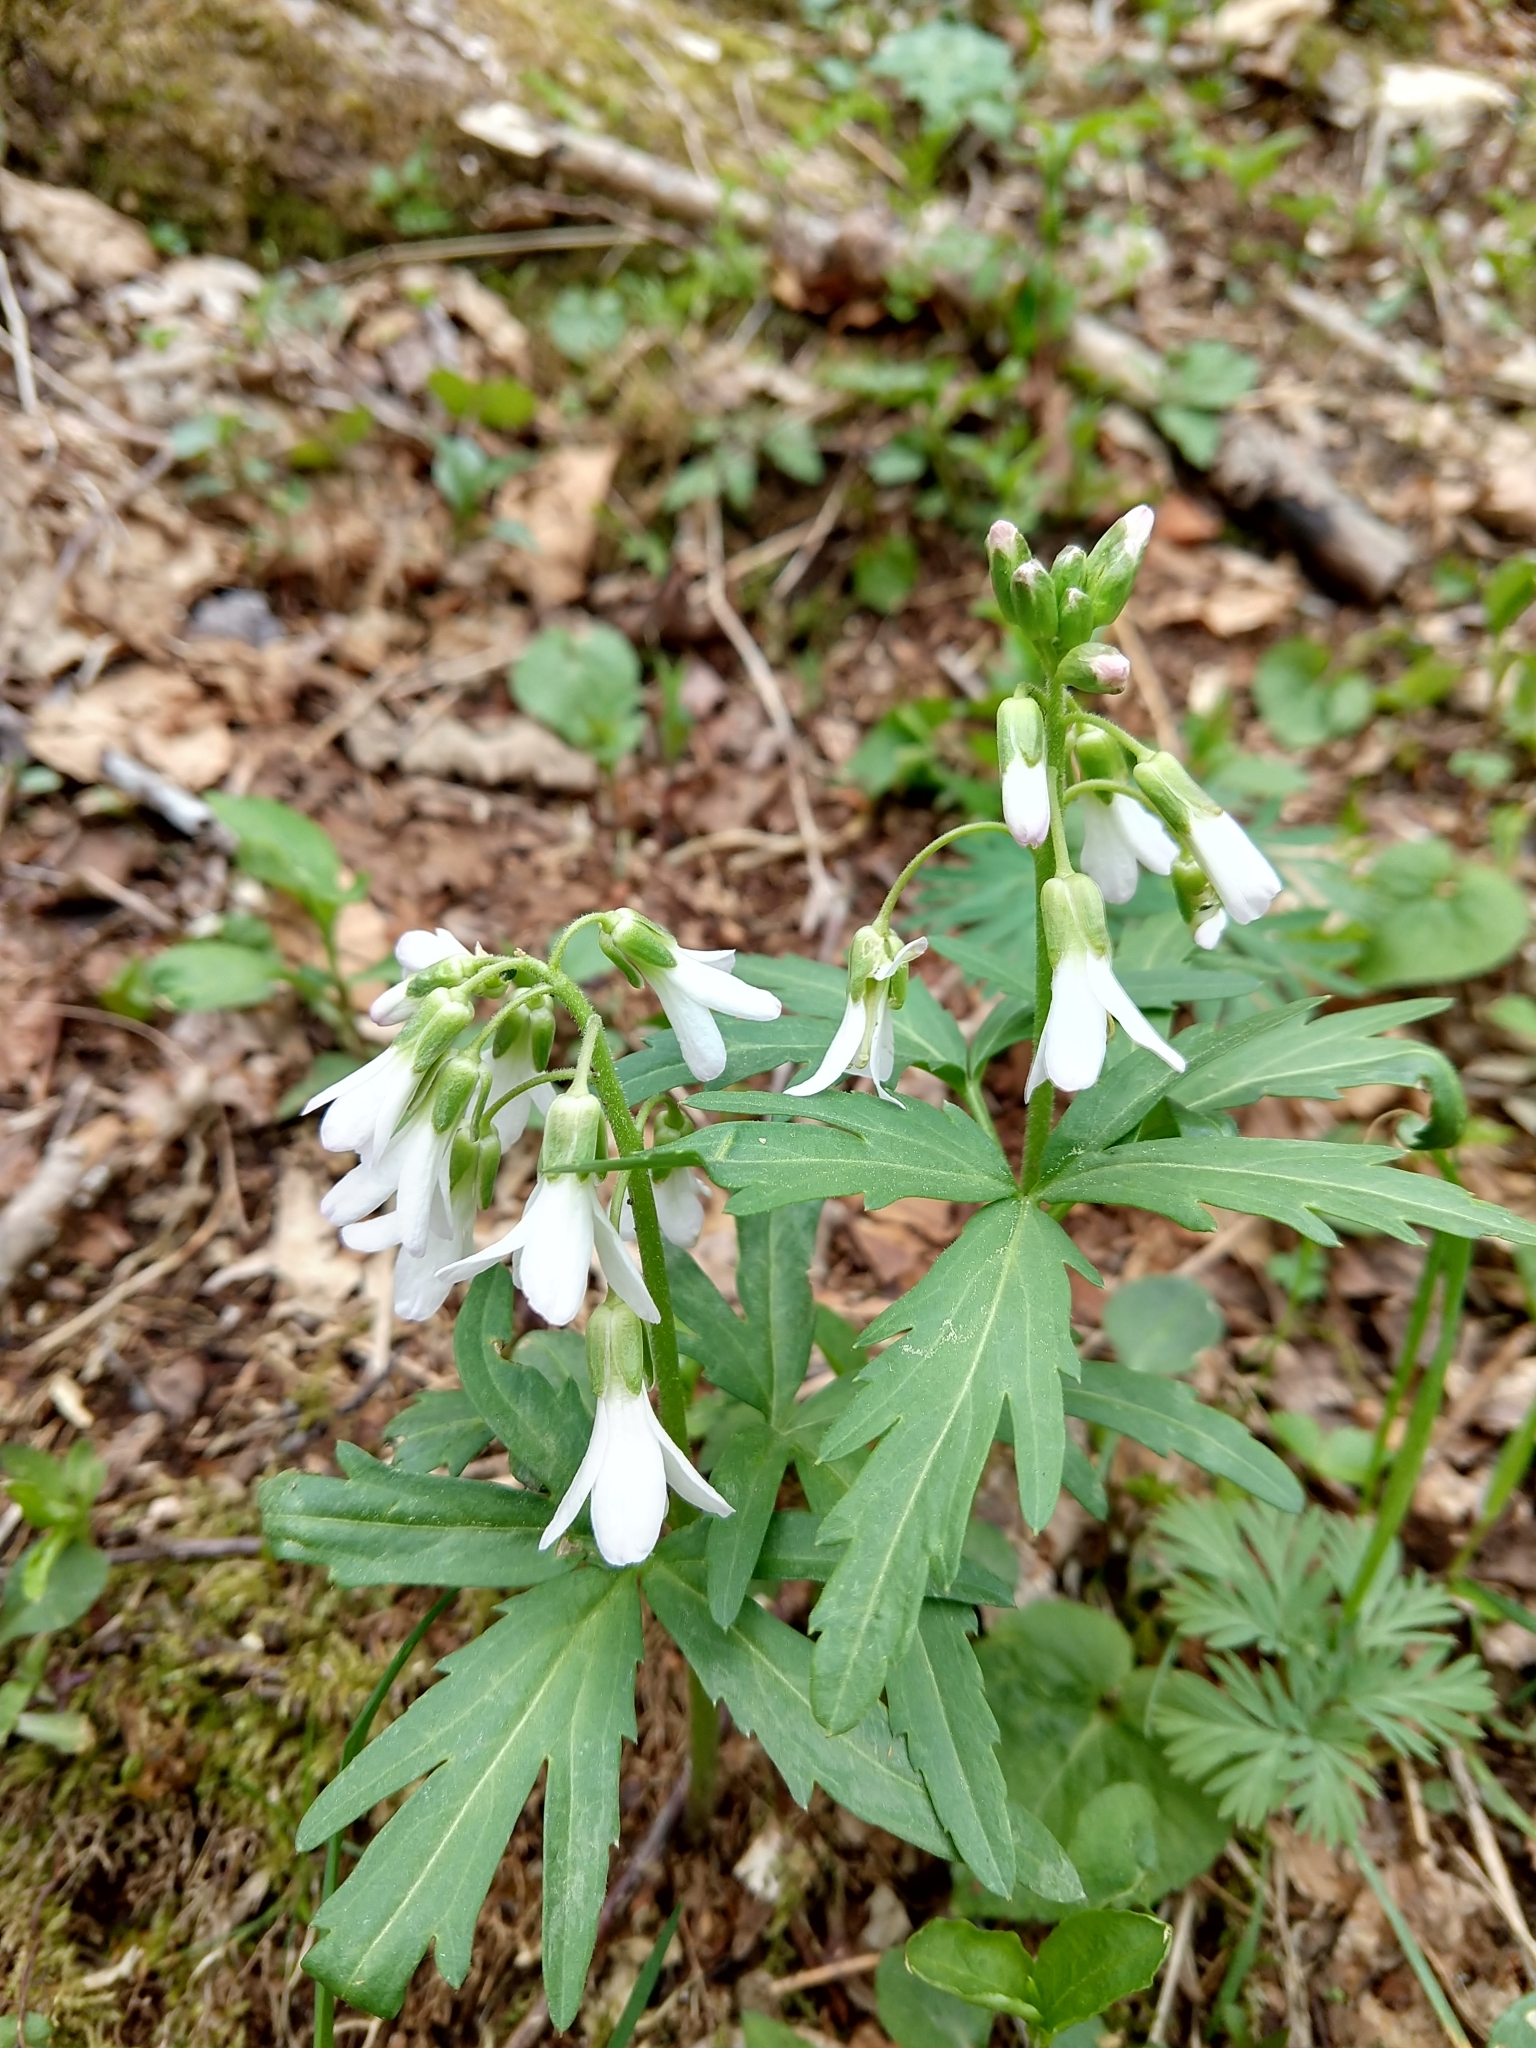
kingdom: Plantae
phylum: Tracheophyta
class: Magnoliopsida
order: Brassicales
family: Brassicaceae
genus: Cardamine
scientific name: Cardamine concatenata
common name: Cut-leaf toothcup
